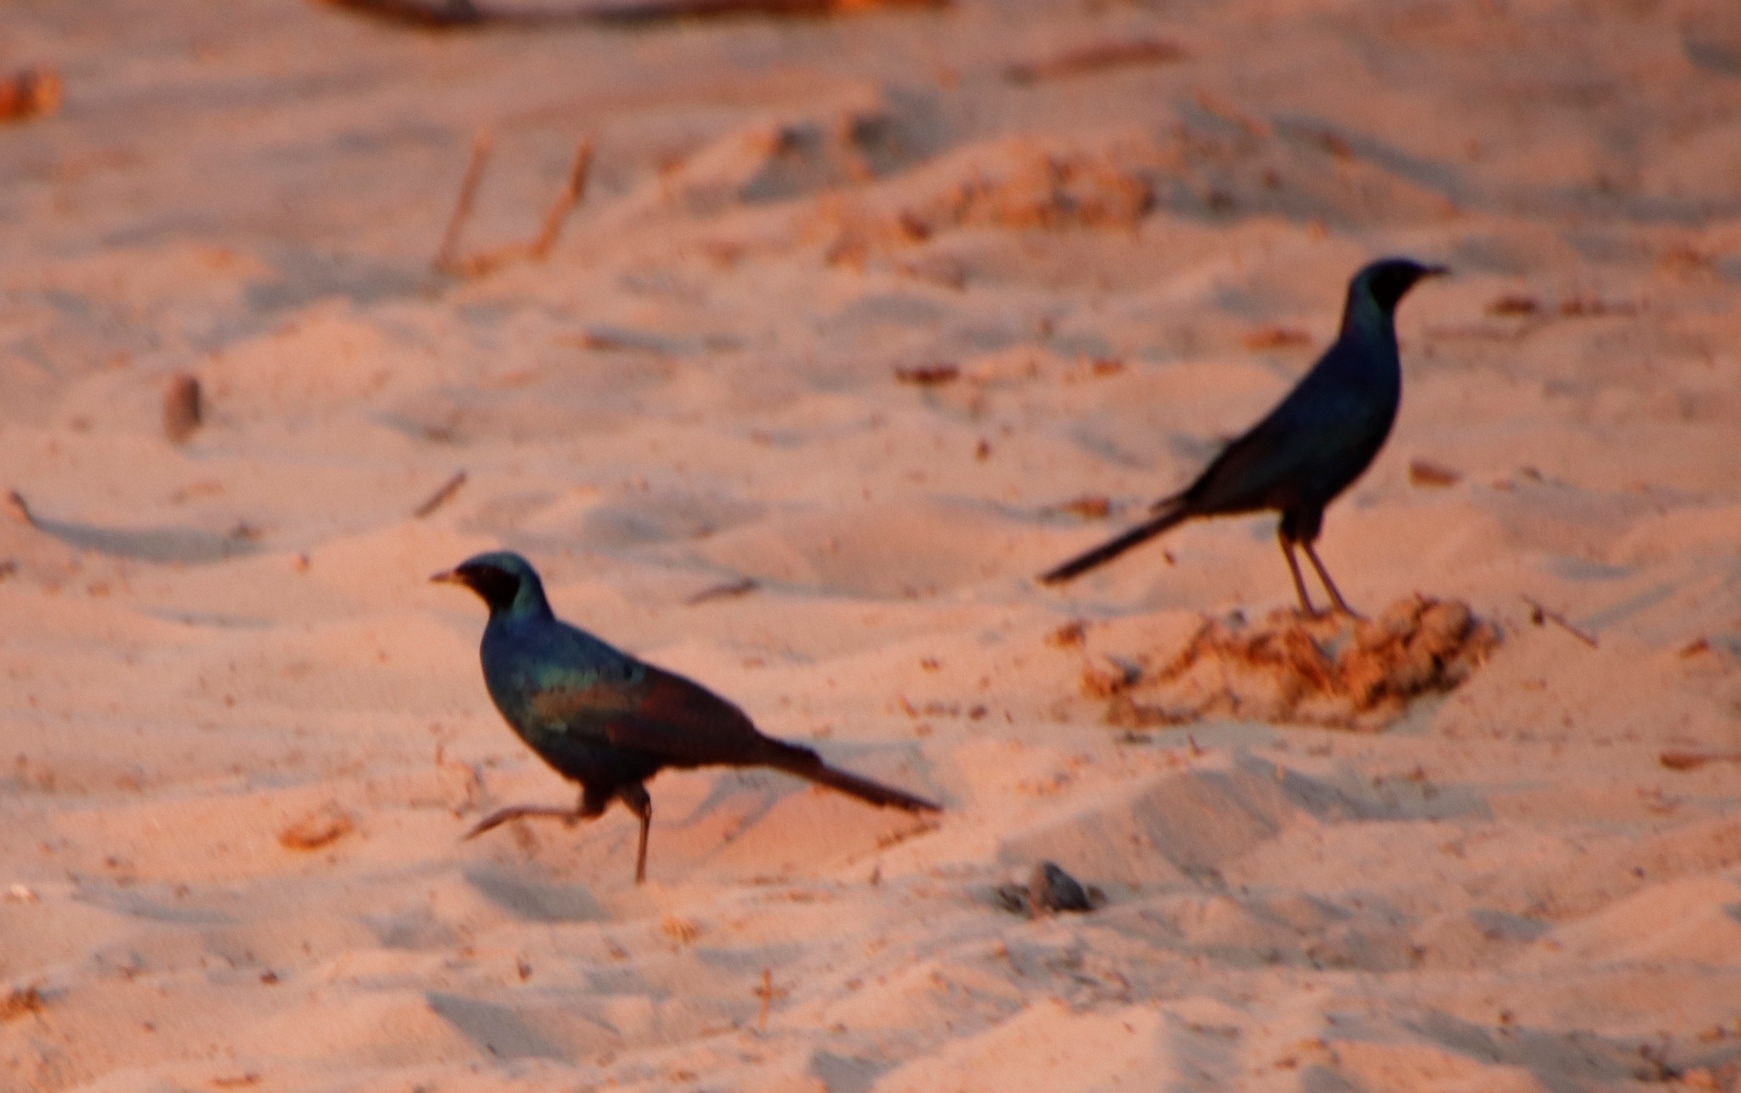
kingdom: Animalia
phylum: Chordata
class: Aves
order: Passeriformes
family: Sturnidae
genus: Lamprotornis
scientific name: Lamprotornis mevesii
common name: Meves's starling
